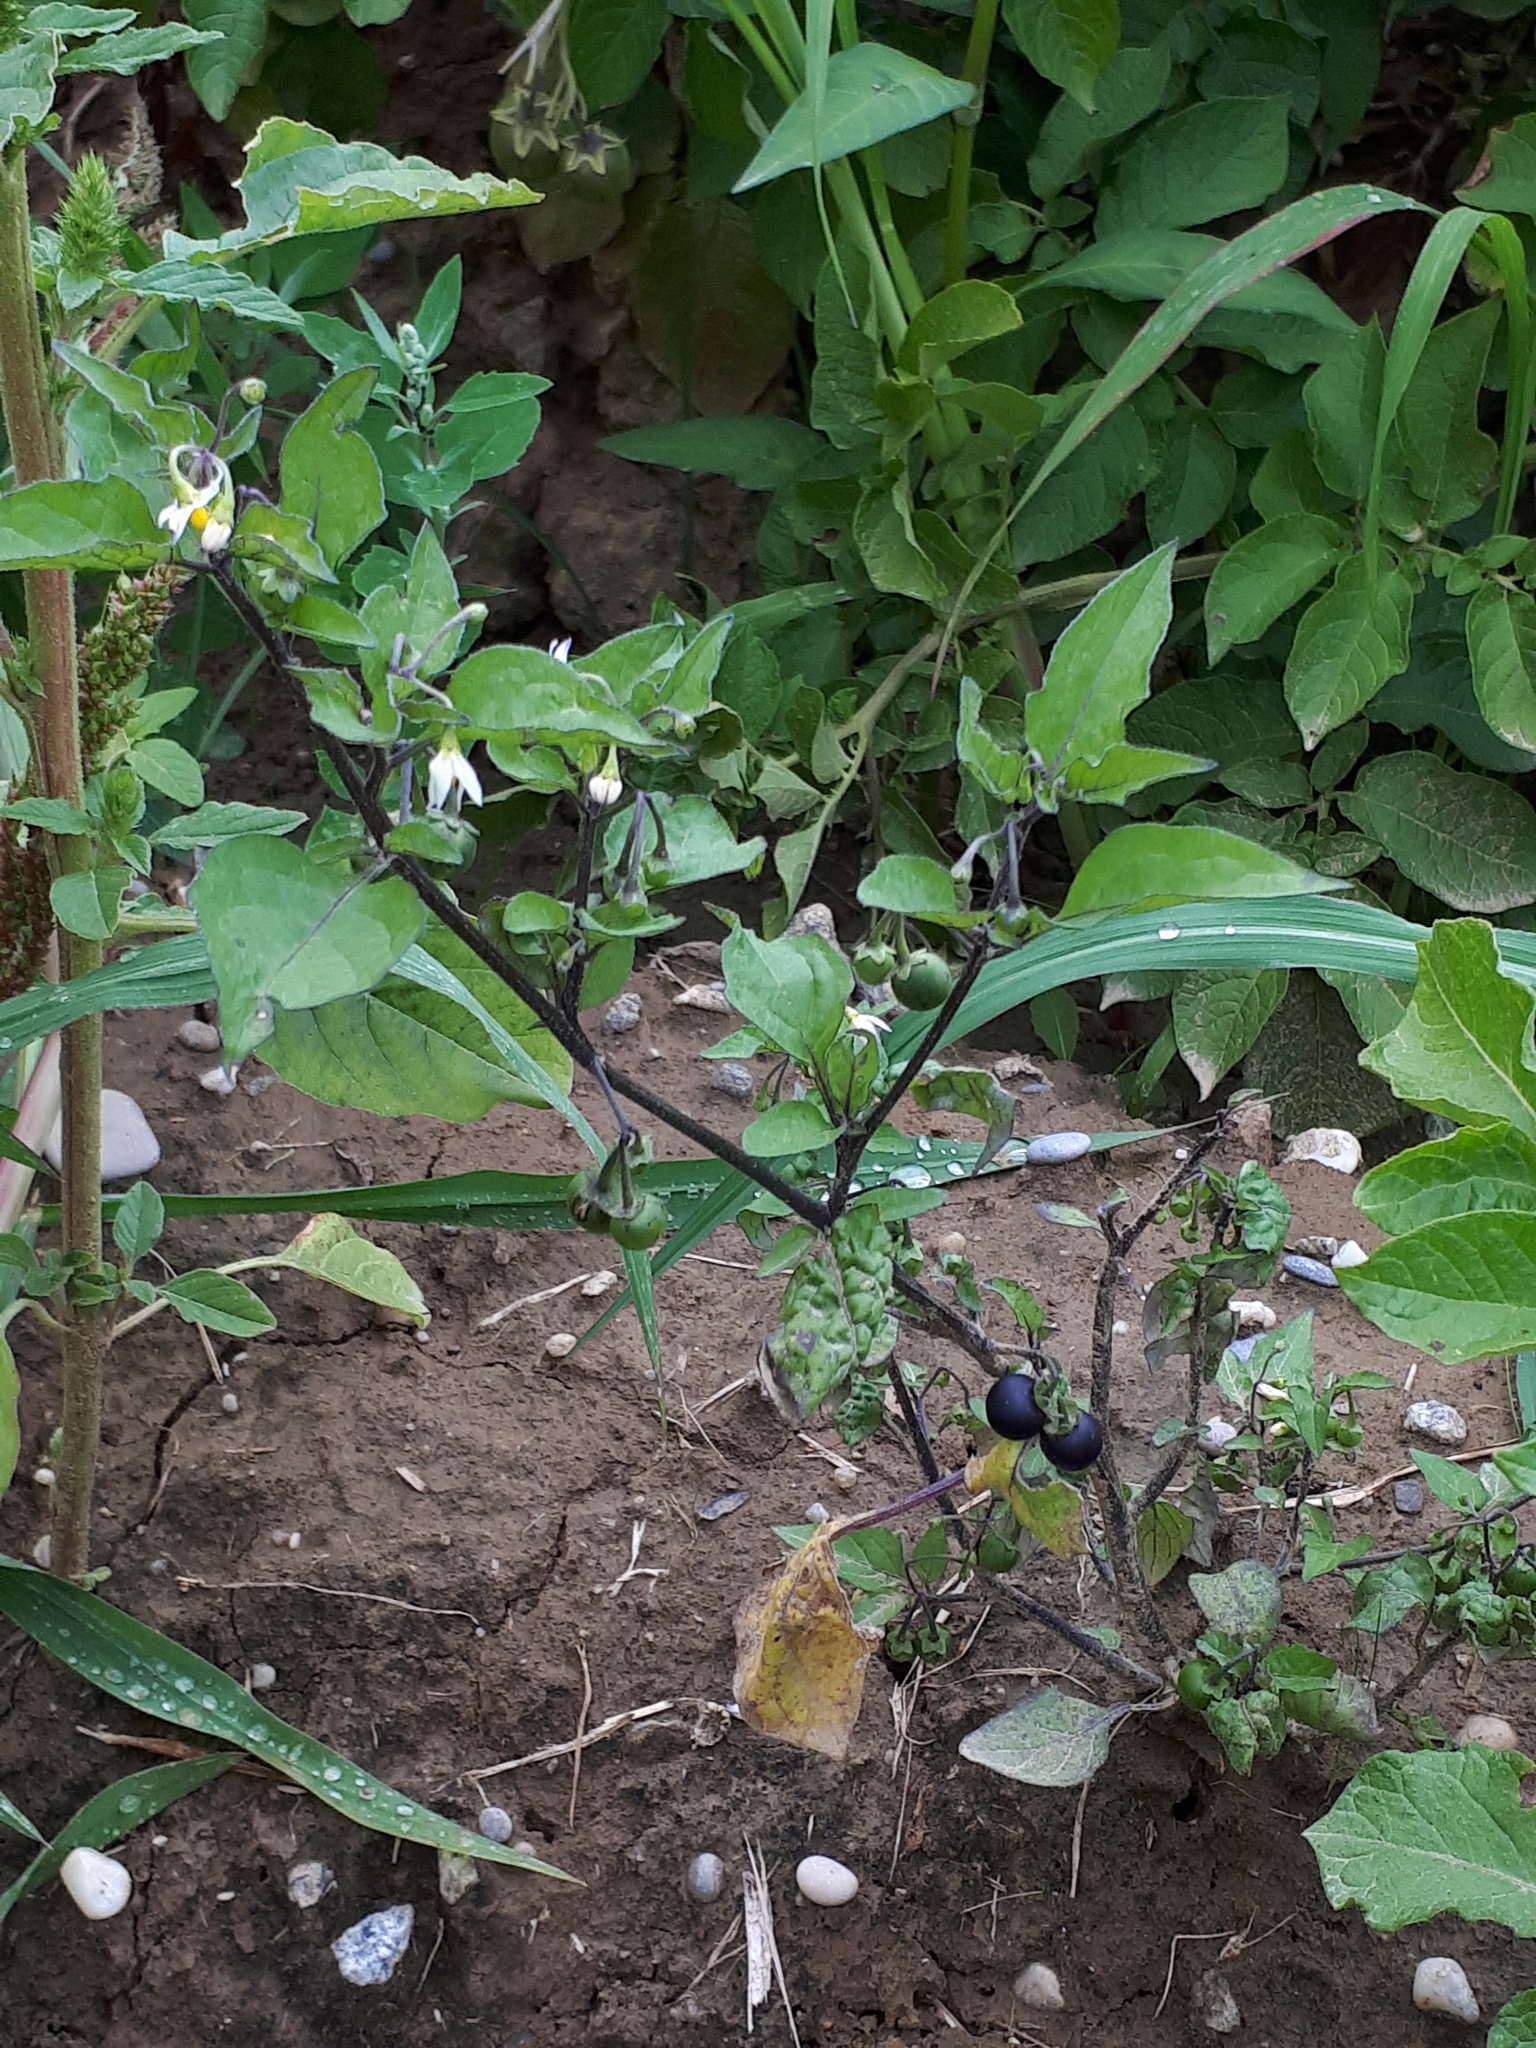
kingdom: Plantae
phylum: Tracheophyta
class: Magnoliopsida
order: Solanales
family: Solanaceae
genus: Solanum
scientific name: Solanum nigrum
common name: Black nightshade
